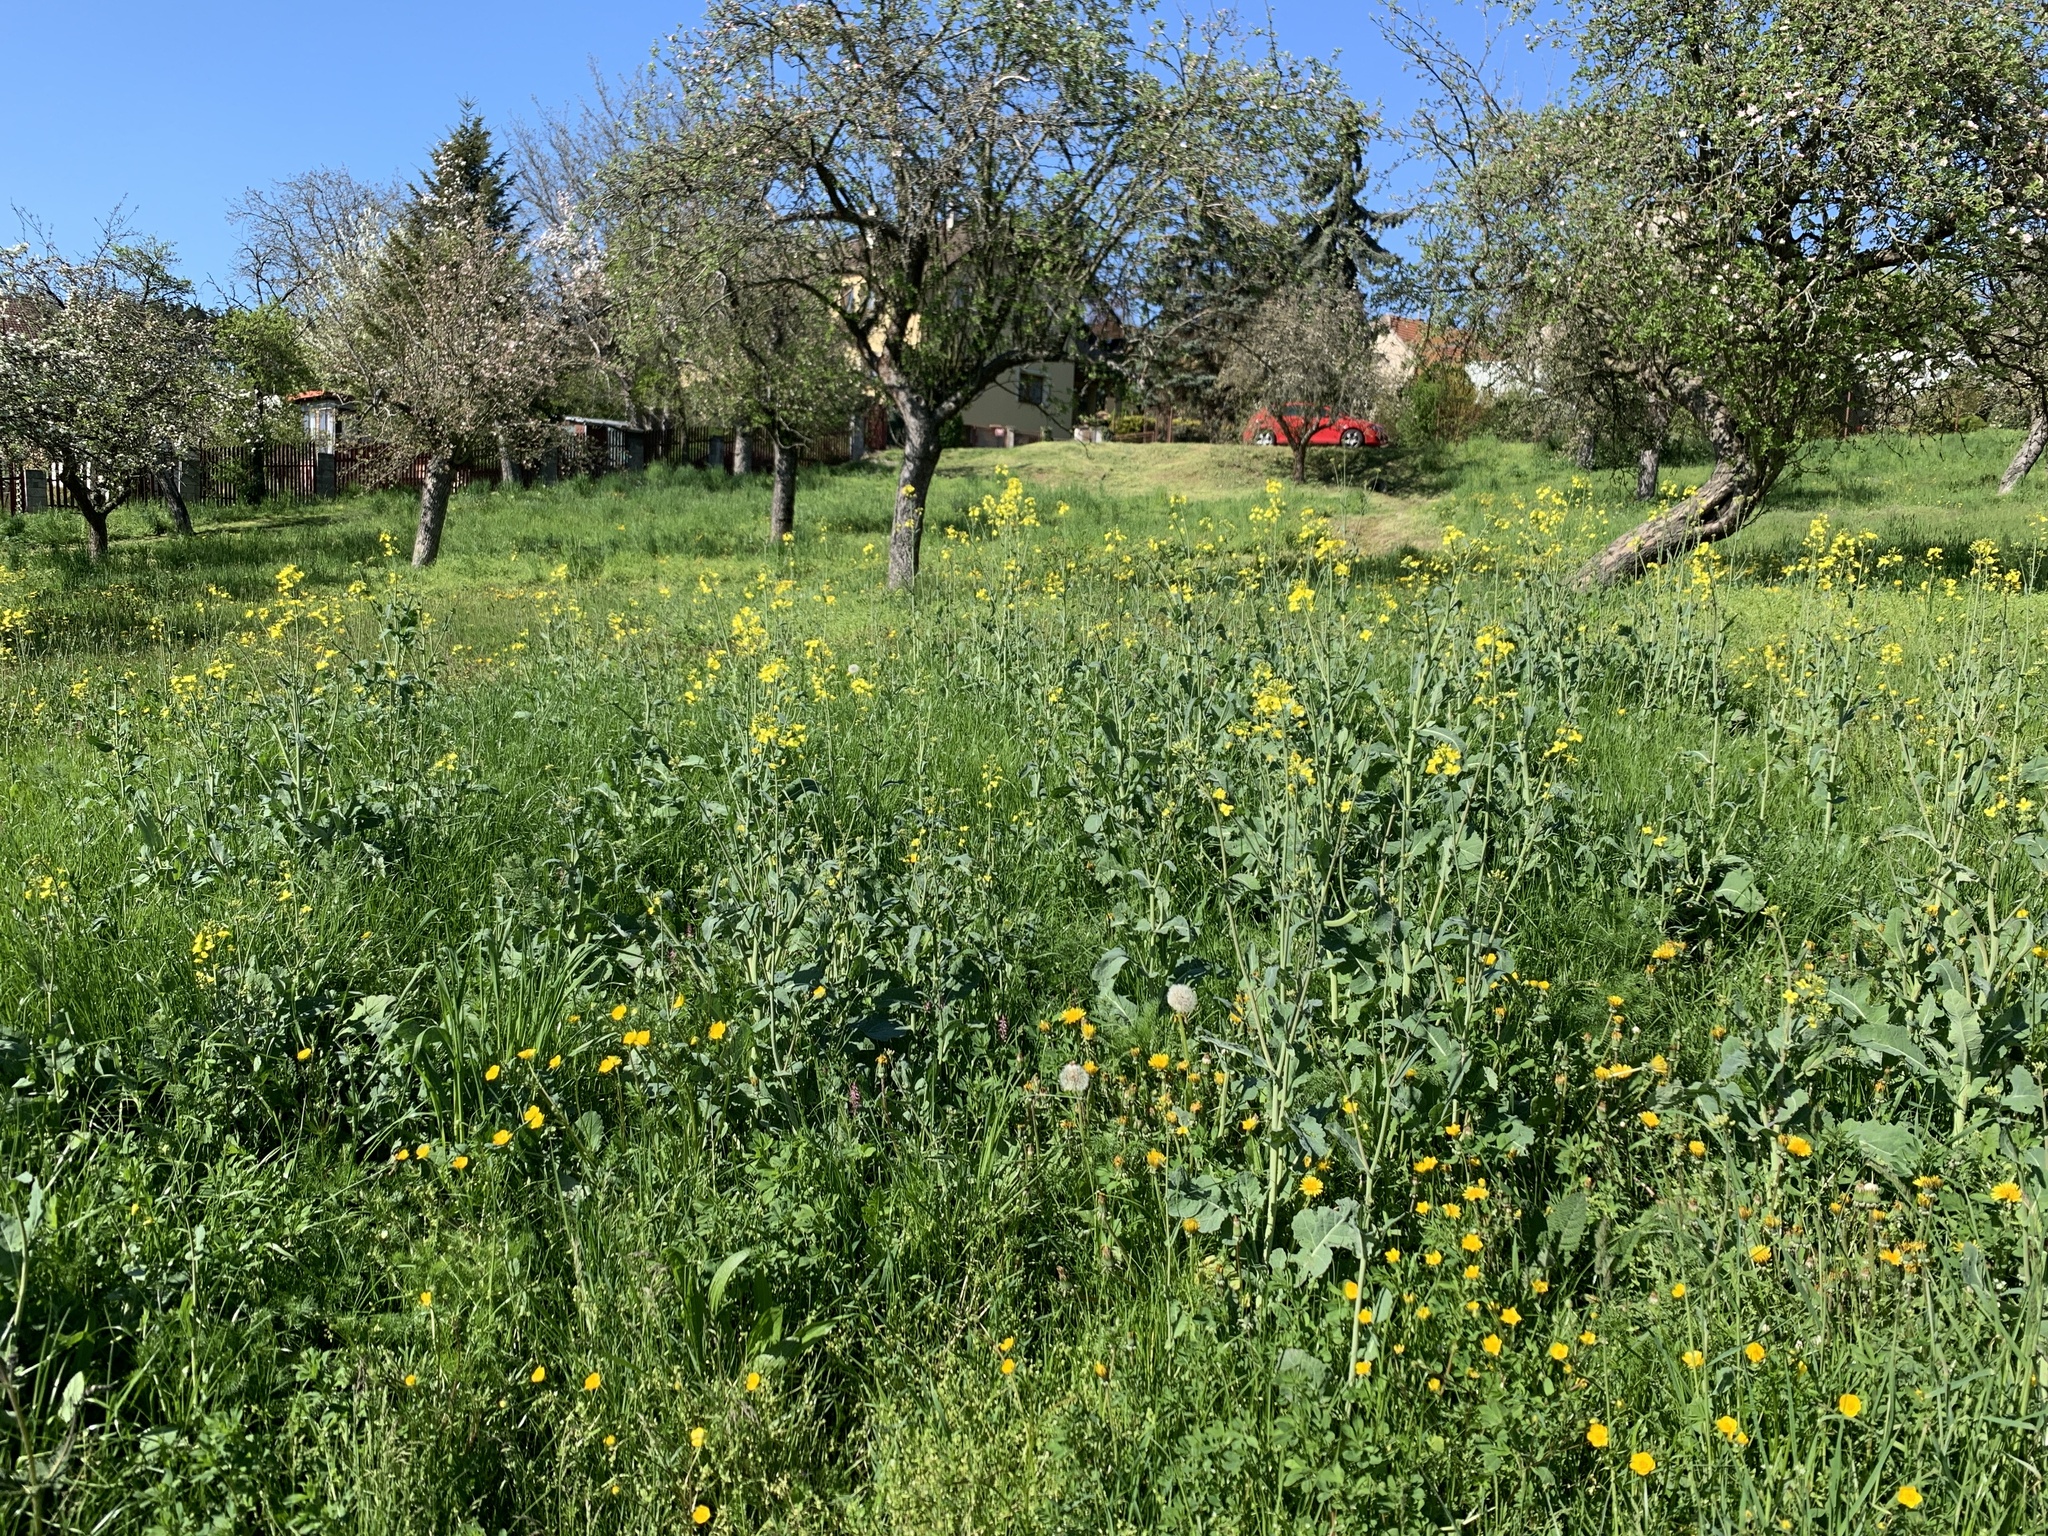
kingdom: Plantae
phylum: Tracheophyta
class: Magnoliopsida
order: Brassicales
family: Brassicaceae
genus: Brassica
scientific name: Brassica napus
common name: Rape
